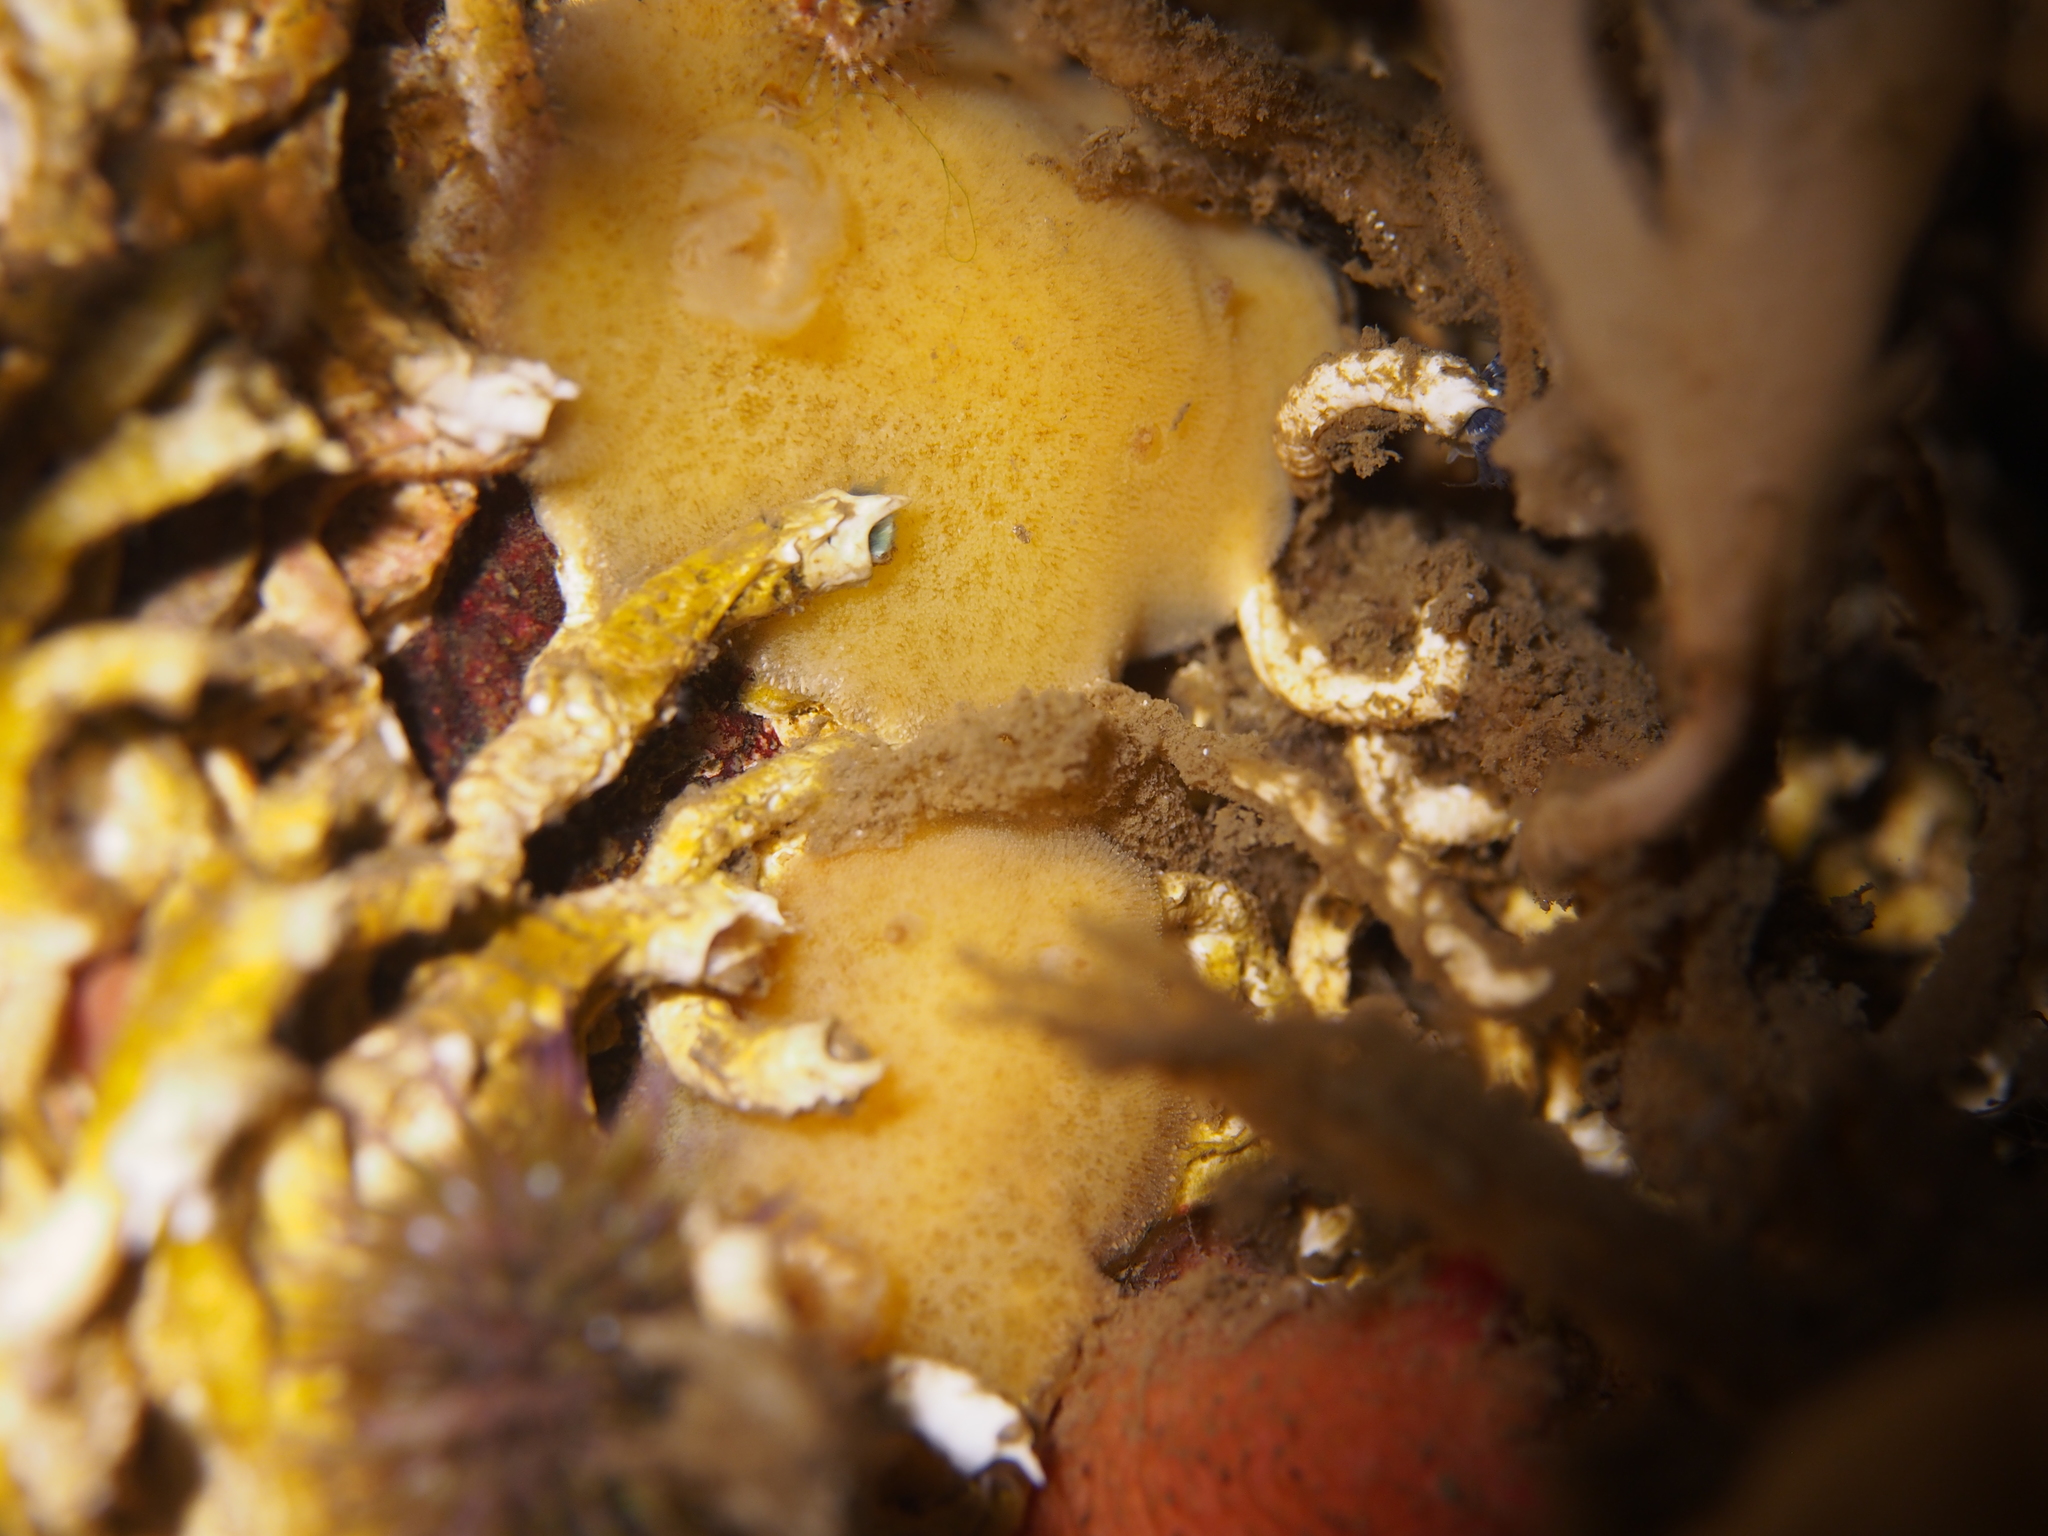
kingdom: Animalia
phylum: Mollusca
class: Gastropoda
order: Nudibranchia
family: Discodorididae
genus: Jorunna
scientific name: Jorunna tomentosa
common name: Grey sea slug
